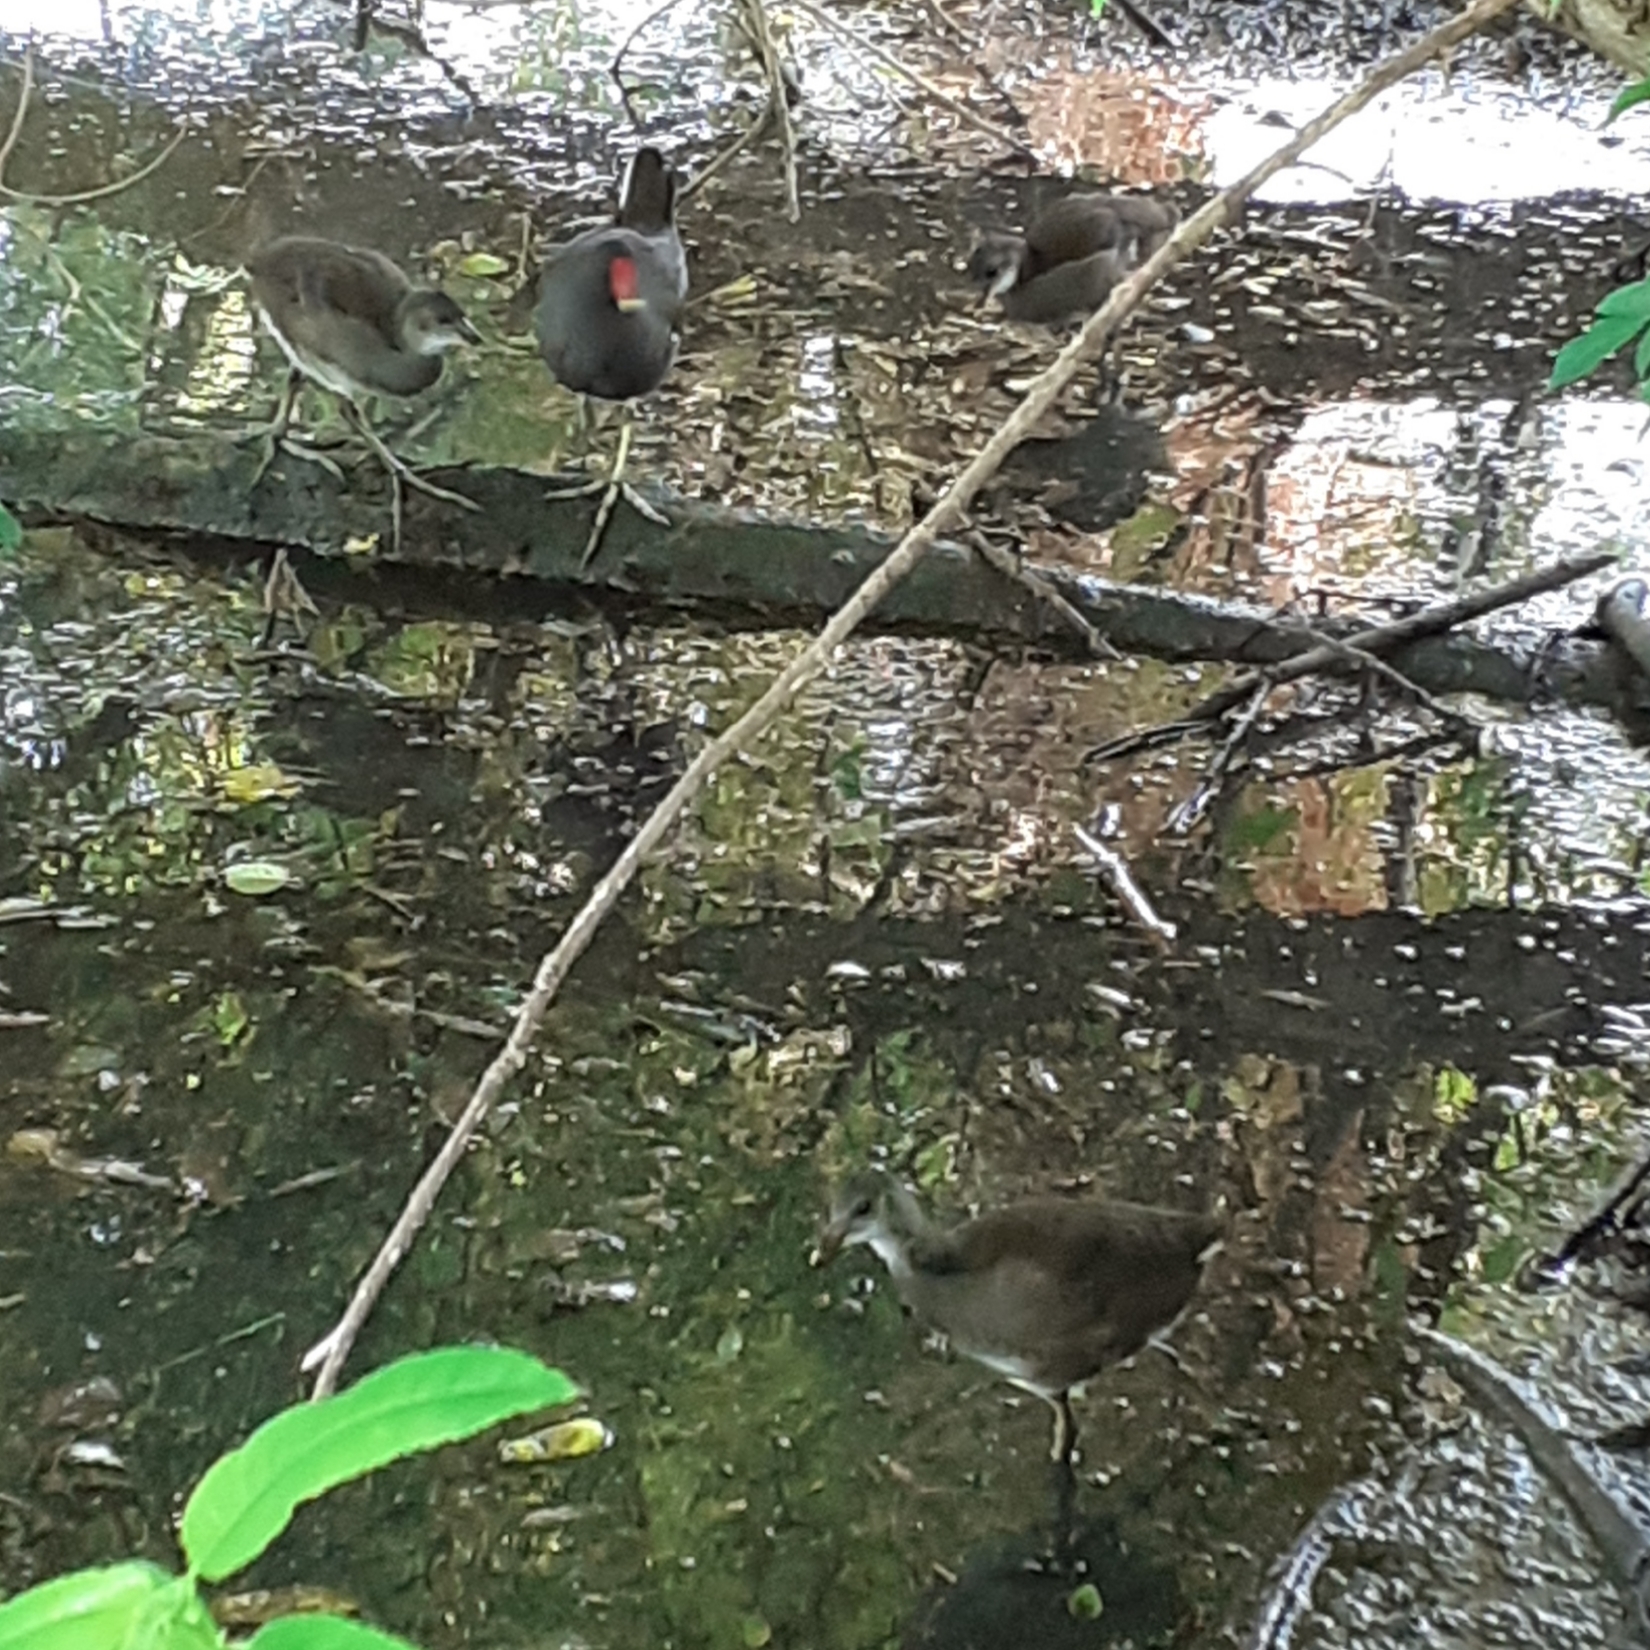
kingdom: Animalia
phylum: Chordata
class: Aves
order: Gruiformes
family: Rallidae
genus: Gallinula
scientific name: Gallinula chloropus
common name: Common moorhen
